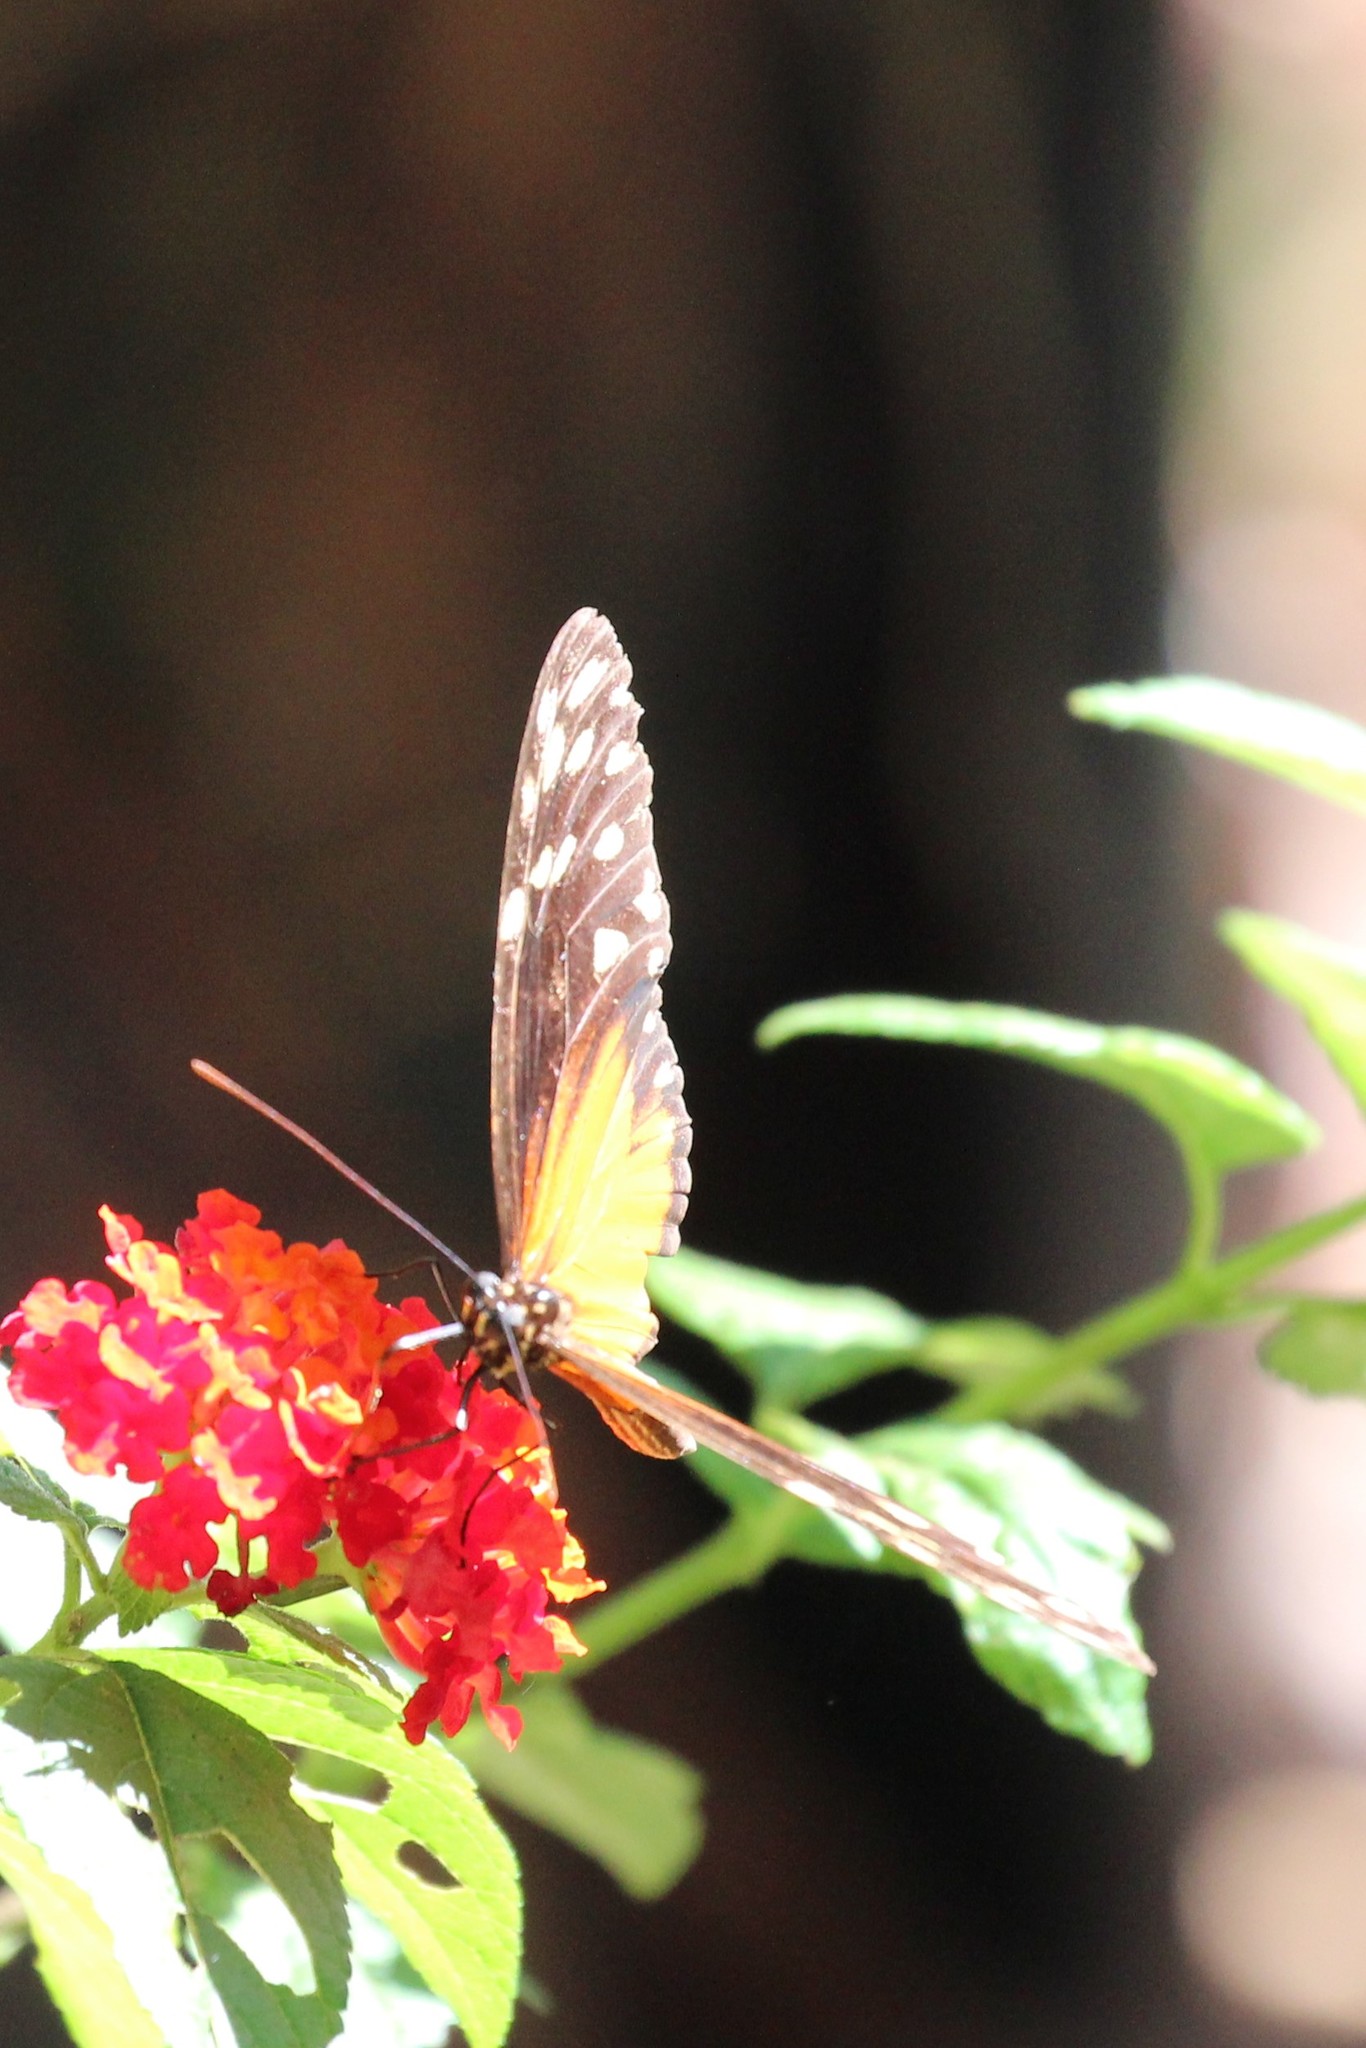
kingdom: Animalia
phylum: Arthropoda
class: Insecta
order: Lepidoptera
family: Nymphalidae
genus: Heliconius
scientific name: Heliconius hecale
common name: Tiger longwing
